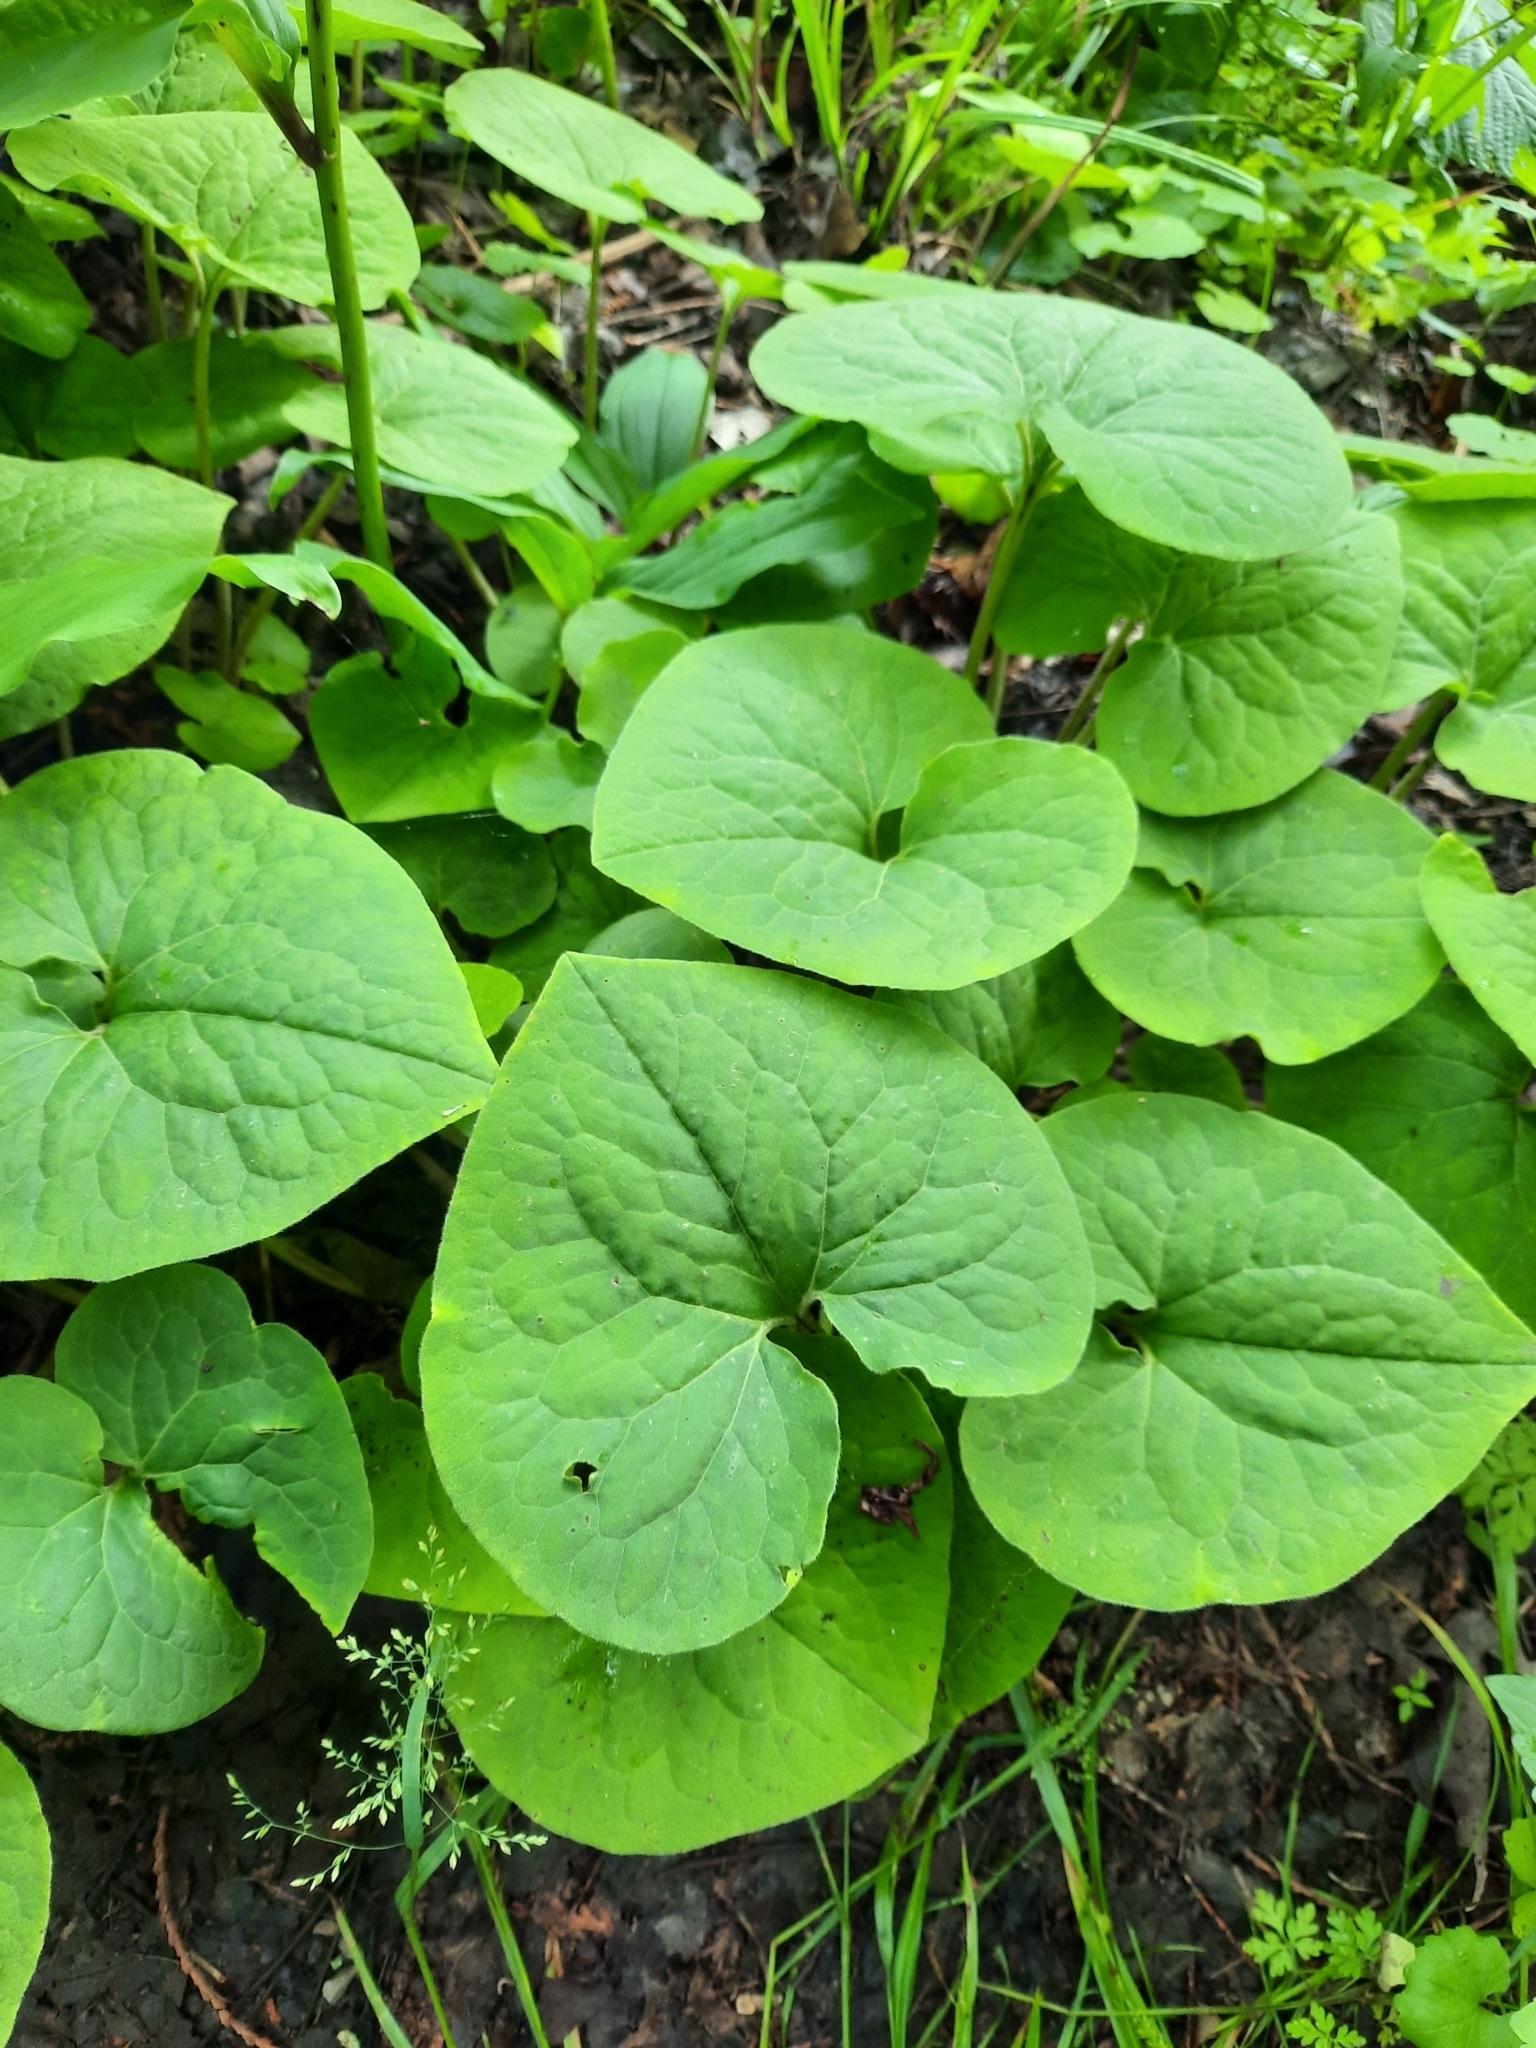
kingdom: Plantae
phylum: Tracheophyta
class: Magnoliopsida
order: Piperales
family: Aristolochiaceae
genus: Asarum
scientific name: Asarum canadense
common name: Wild ginger
